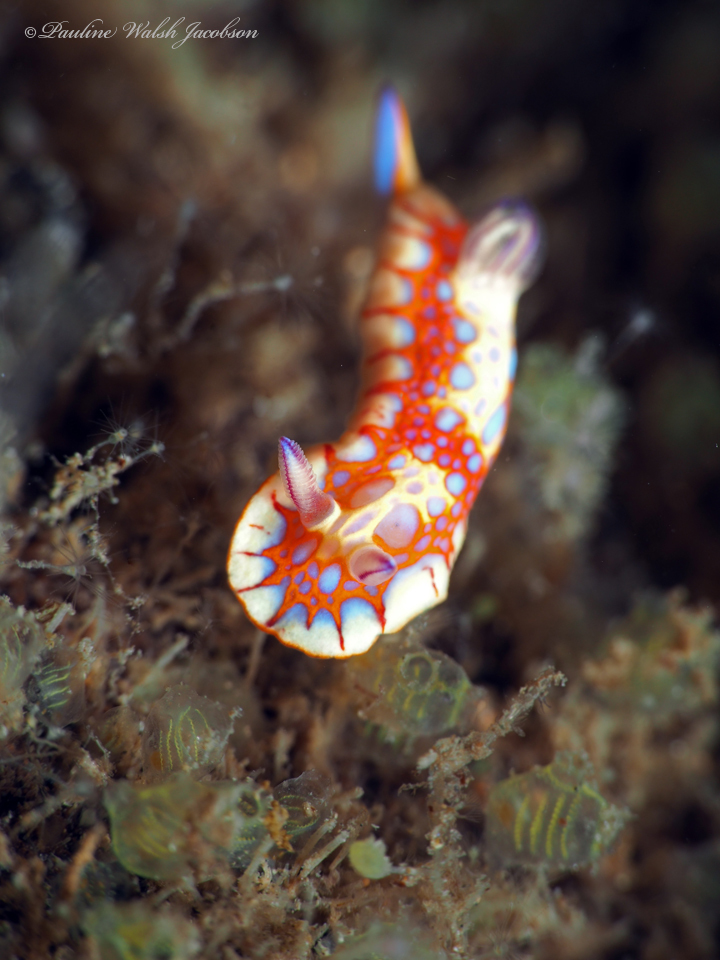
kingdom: Animalia
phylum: Mollusca
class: Gastropoda
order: Nudibranchia
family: Chromodorididae
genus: Felimida
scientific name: Felimida binza
